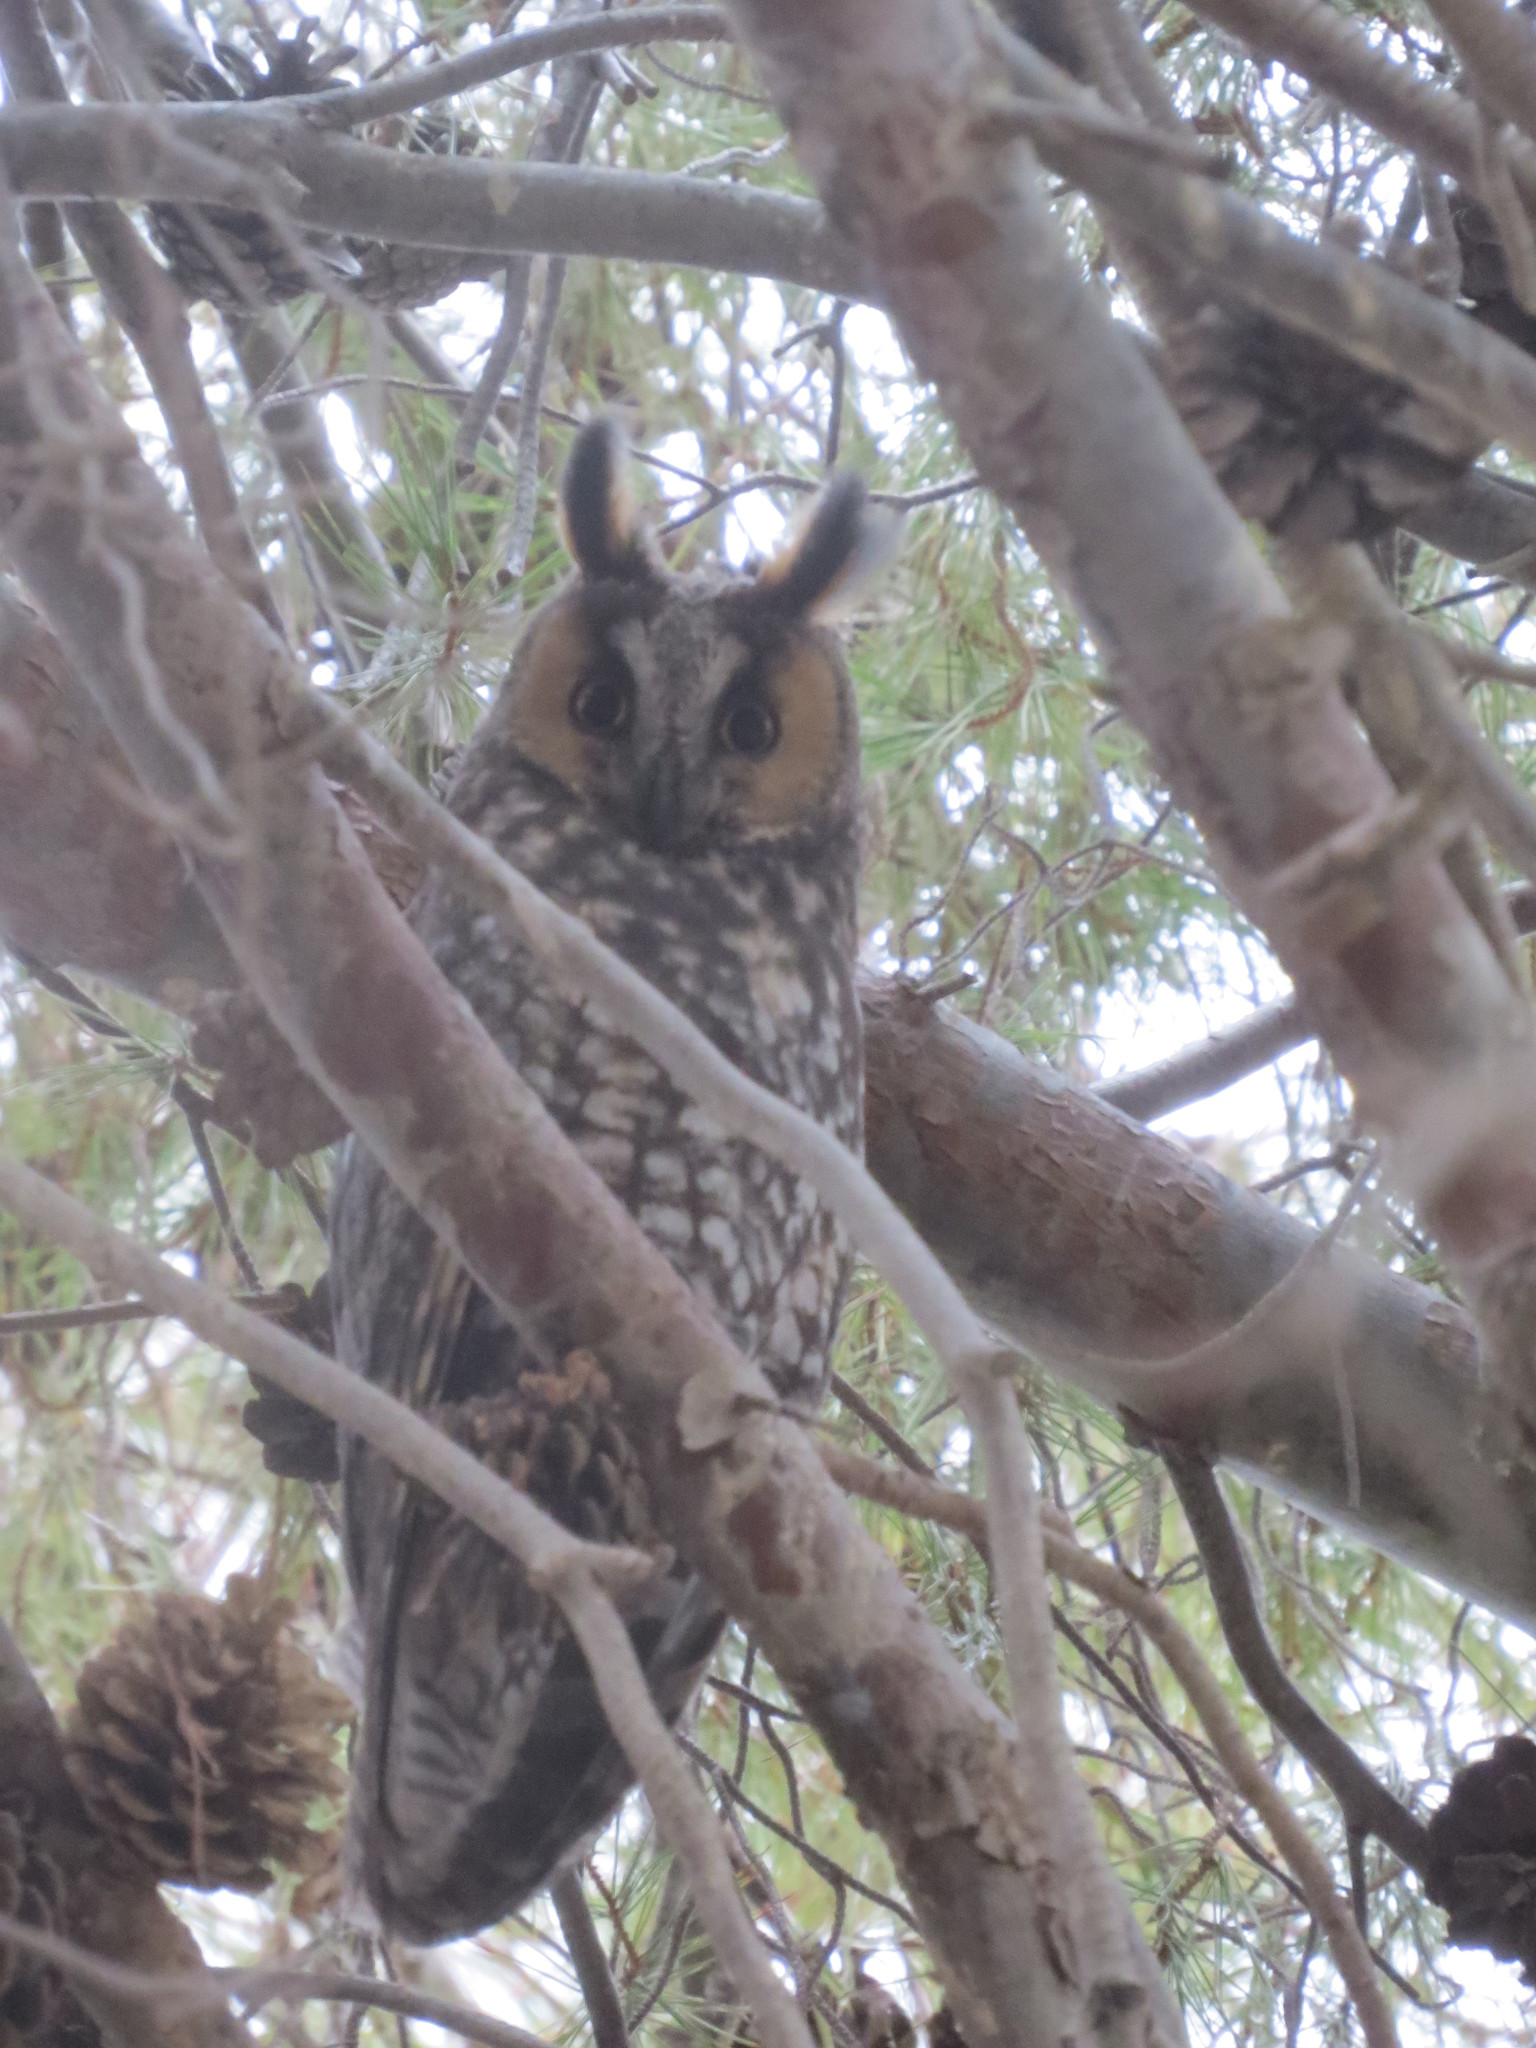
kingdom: Animalia
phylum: Chordata
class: Aves
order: Strigiformes
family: Strigidae
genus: Asio
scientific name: Asio otus
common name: Long-eared owl
